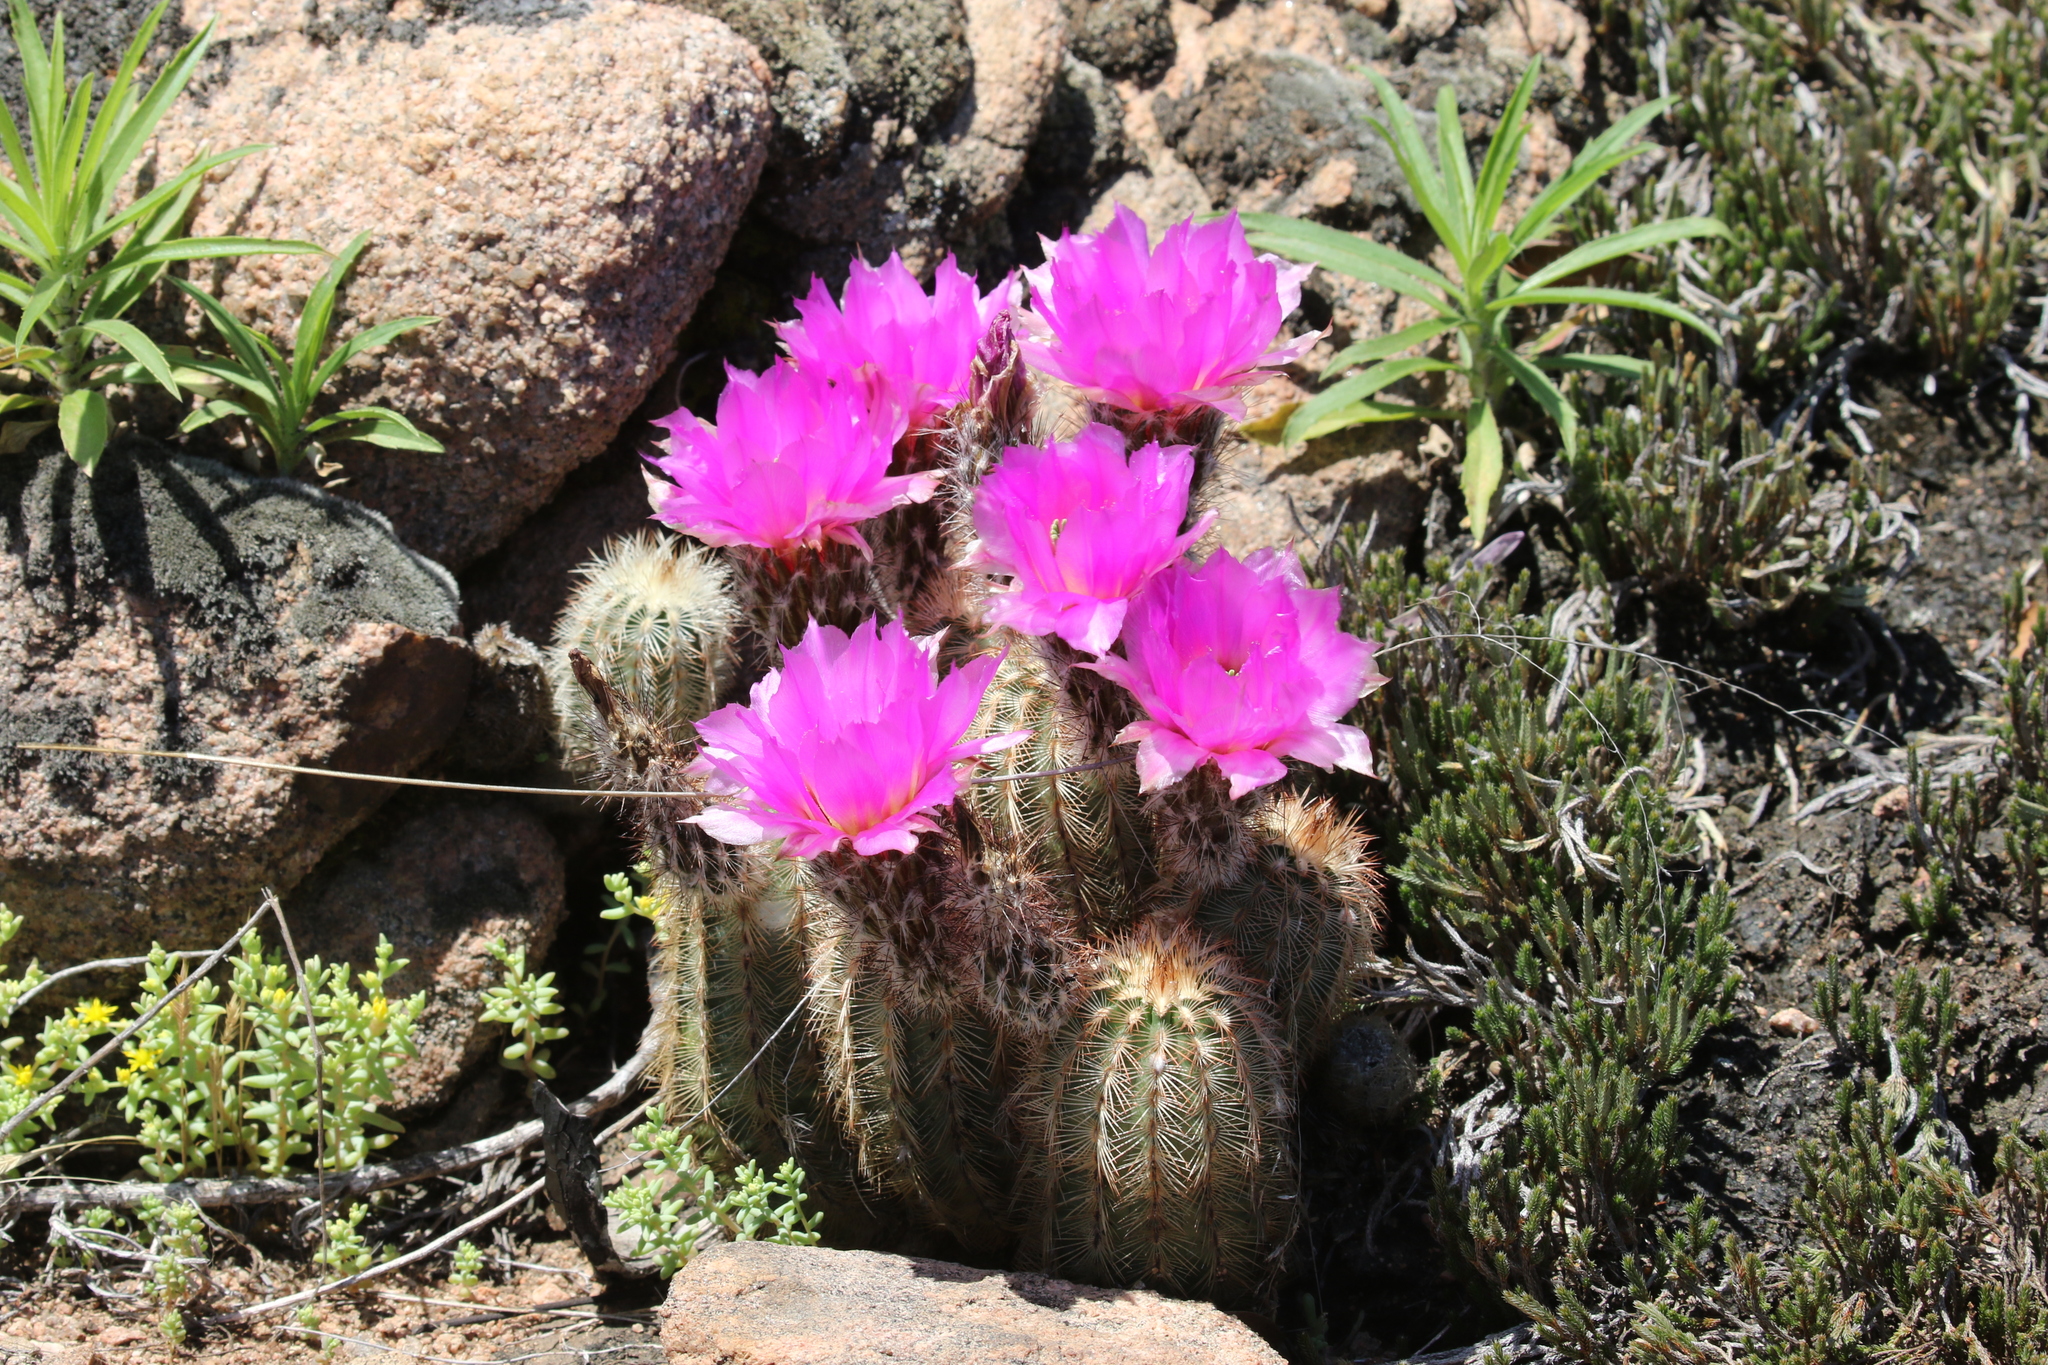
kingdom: Plantae
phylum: Tracheophyta
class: Magnoliopsida
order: Caryophyllales
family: Cactaceae
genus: Echinocereus
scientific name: Echinocereus reichenbachii
